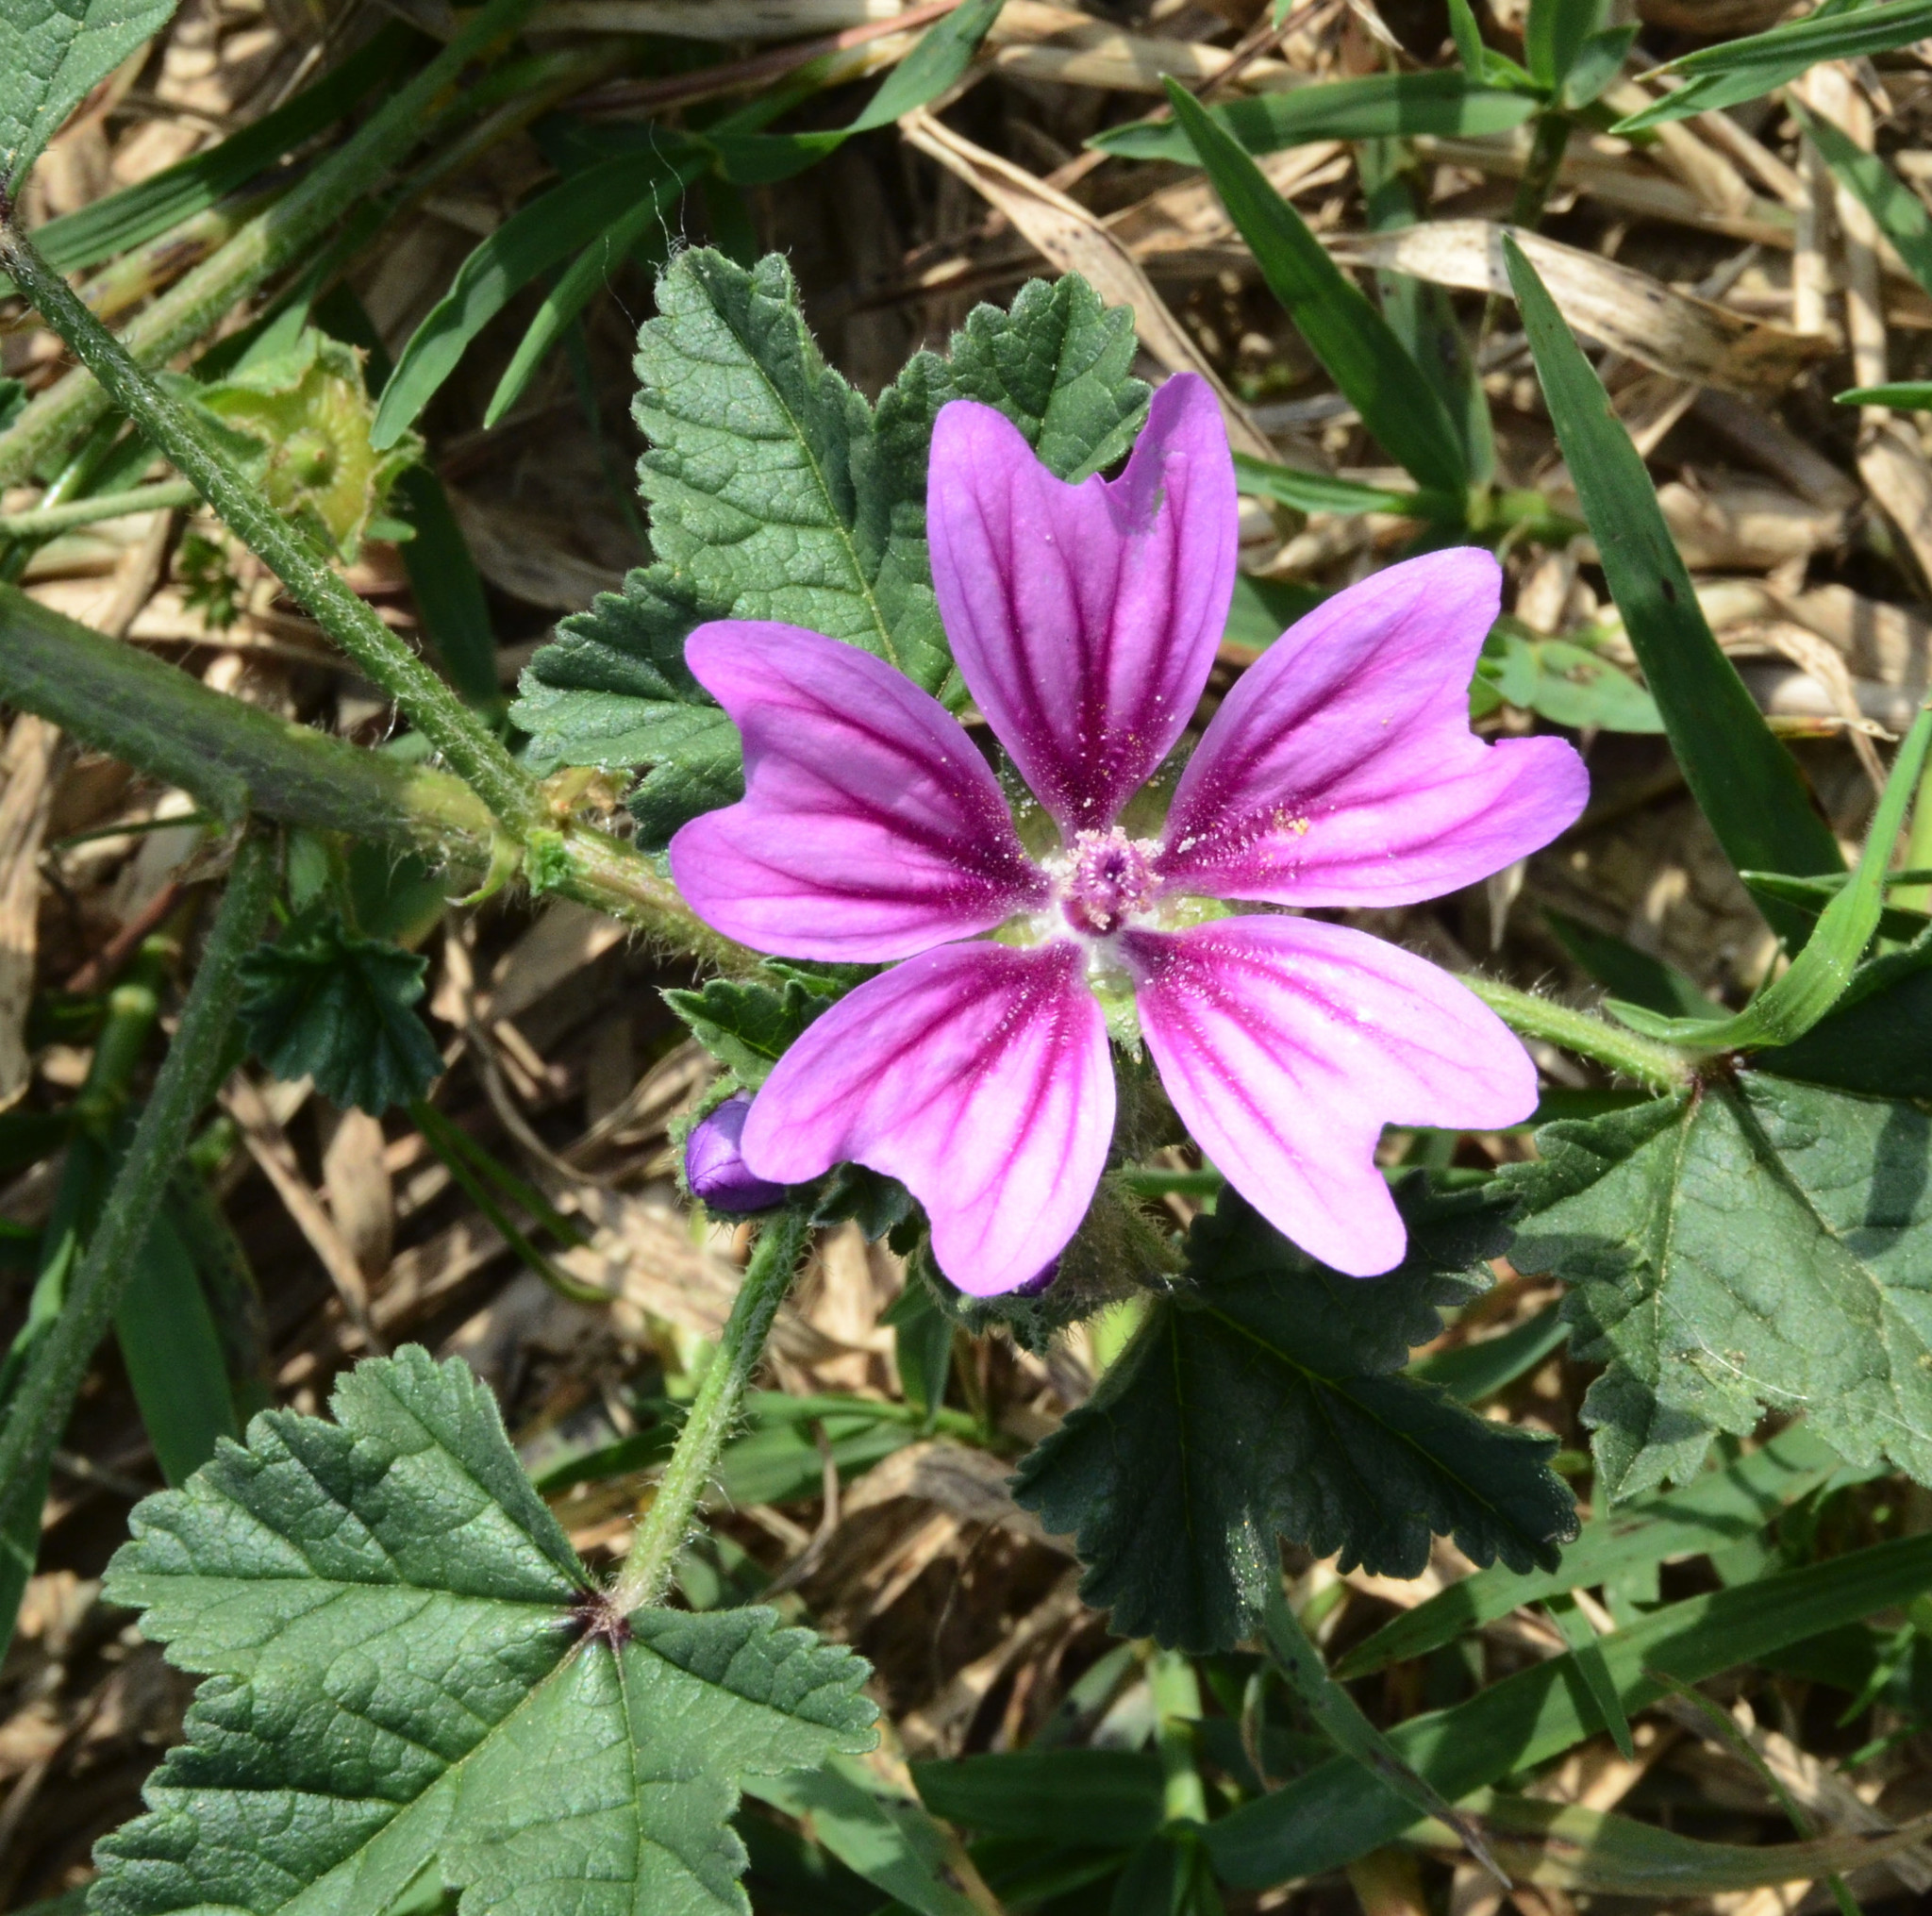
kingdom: Plantae
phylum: Tracheophyta
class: Magnoliopsida
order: Malvales
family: Malvaceae
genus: Malva
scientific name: Malva sylvestris
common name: Common mallow
